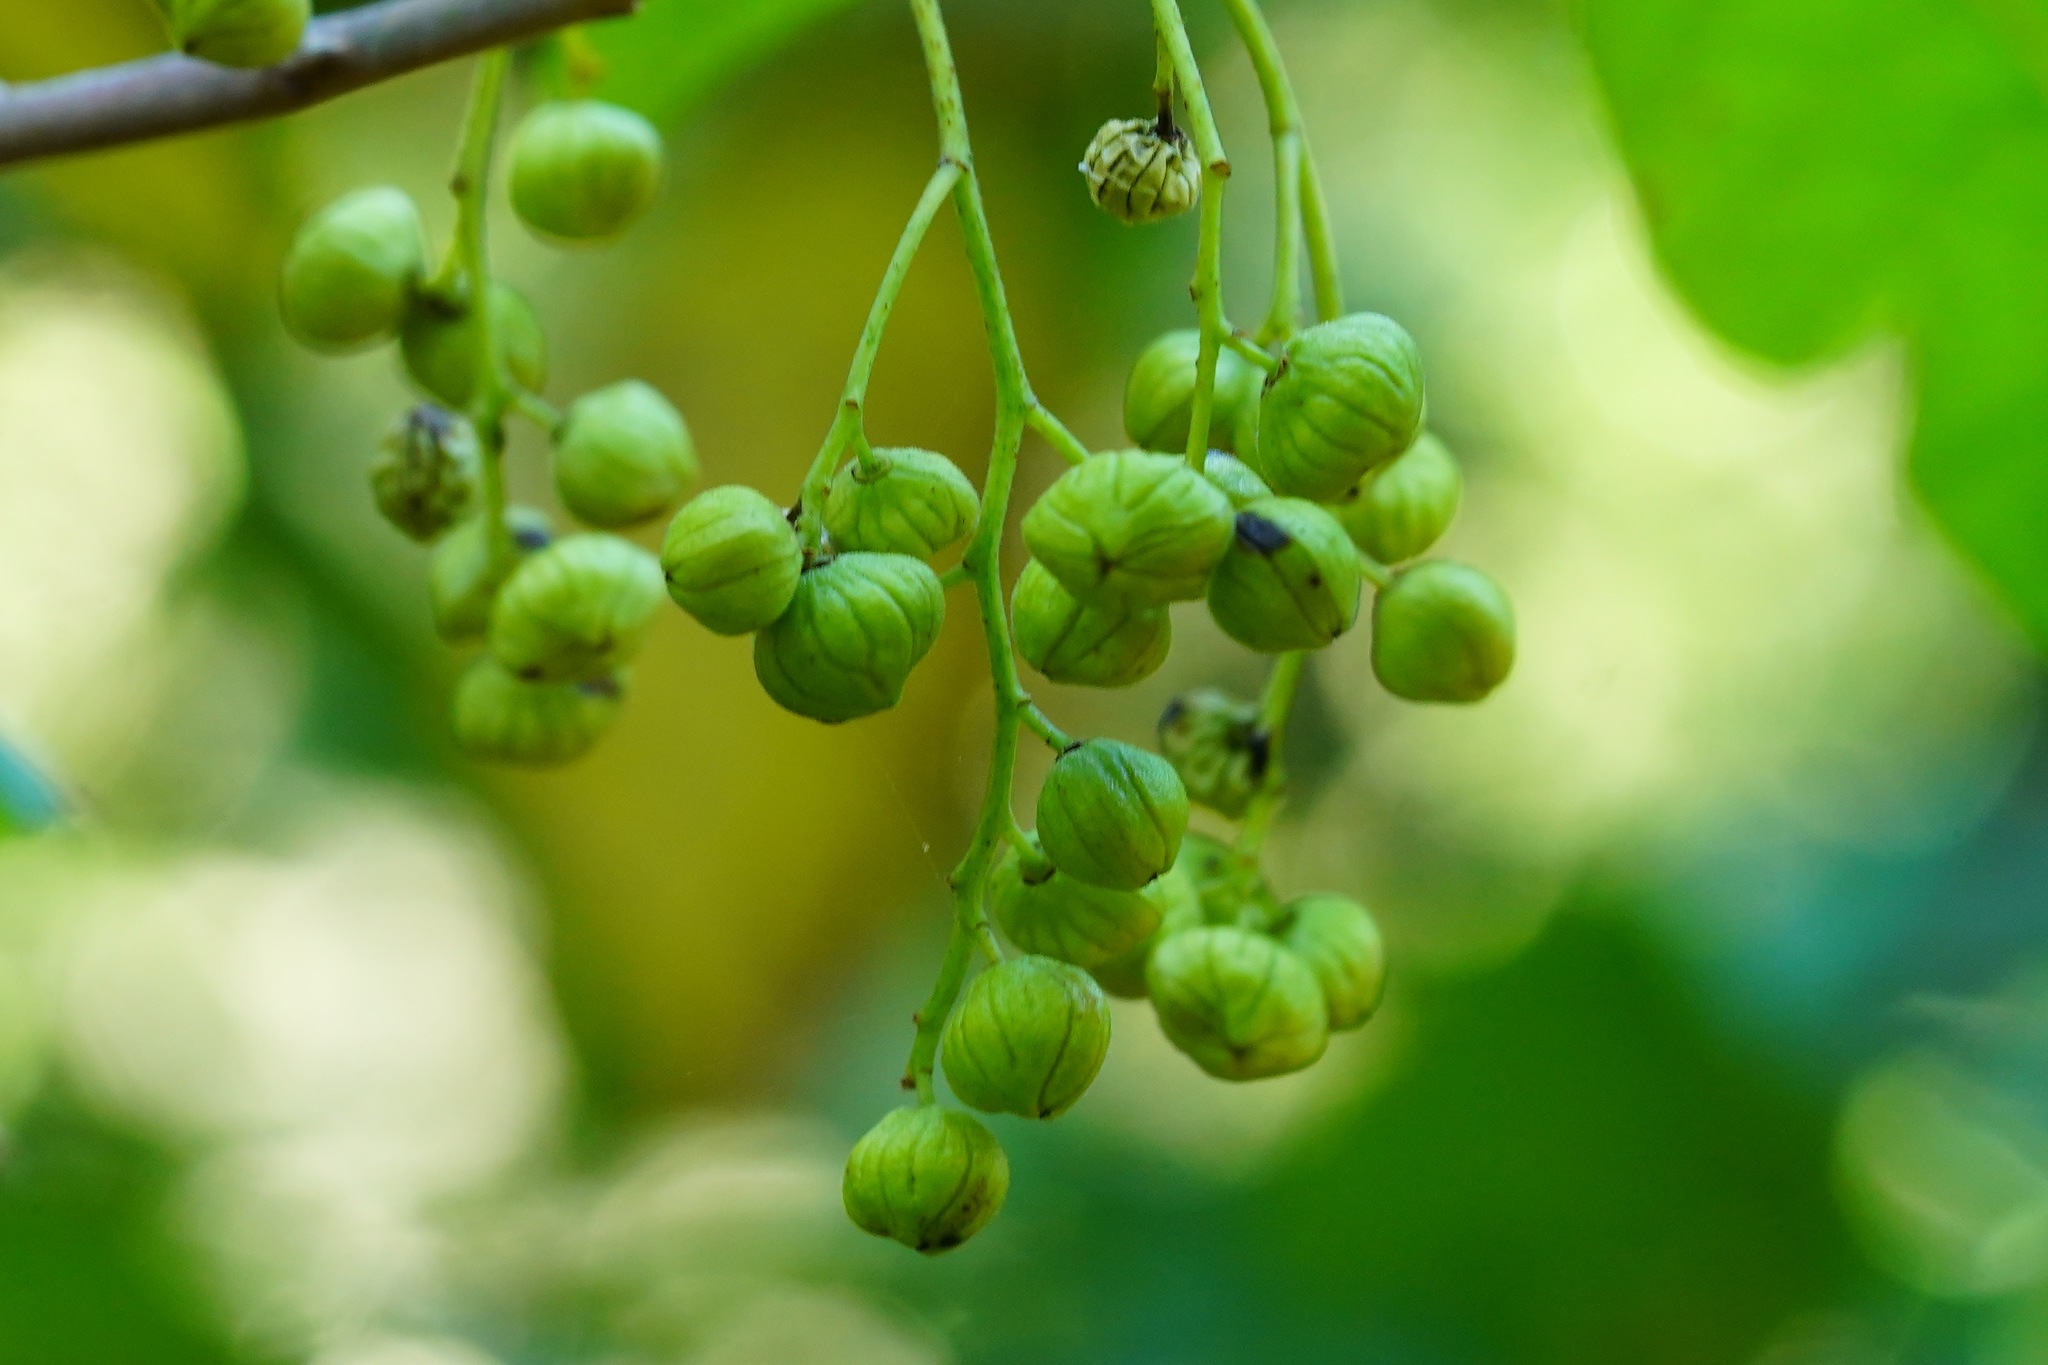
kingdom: Plantae
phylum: Tracheophyta
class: Magnoliopsida
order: Sapindales
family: Anacardiaceae
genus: Toxicodendron
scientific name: Toxicodendron diversilobum
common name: Pacific poison-oak
